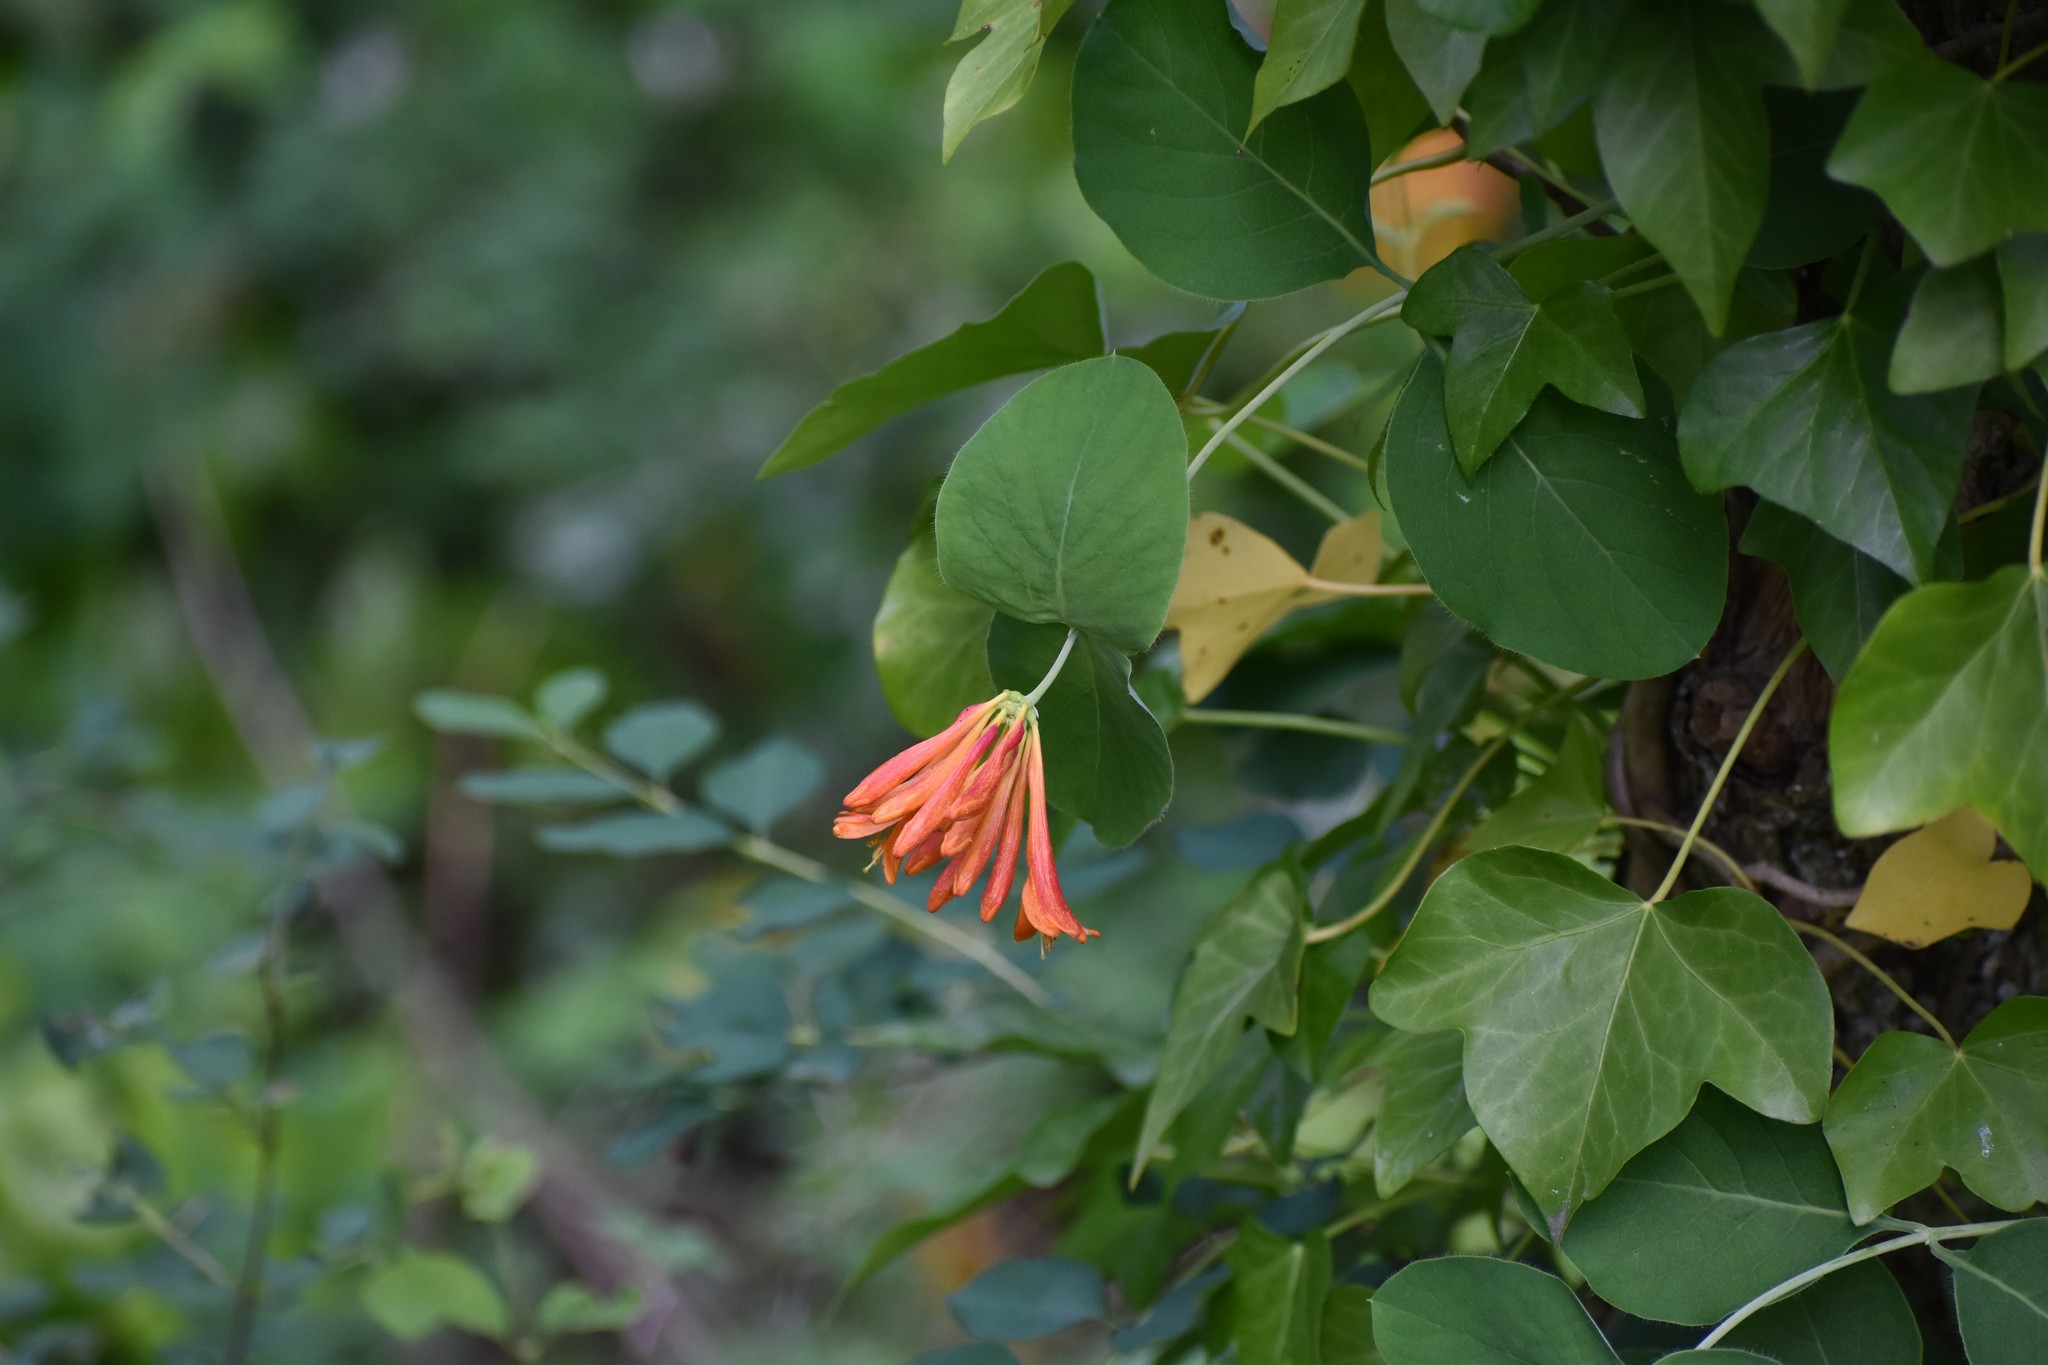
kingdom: Plantae
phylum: Tracheophyta
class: Magnoliopsida
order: Dipsacales
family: Caprifoliaceae
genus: Lonicera
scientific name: Lonicera ciliosa
